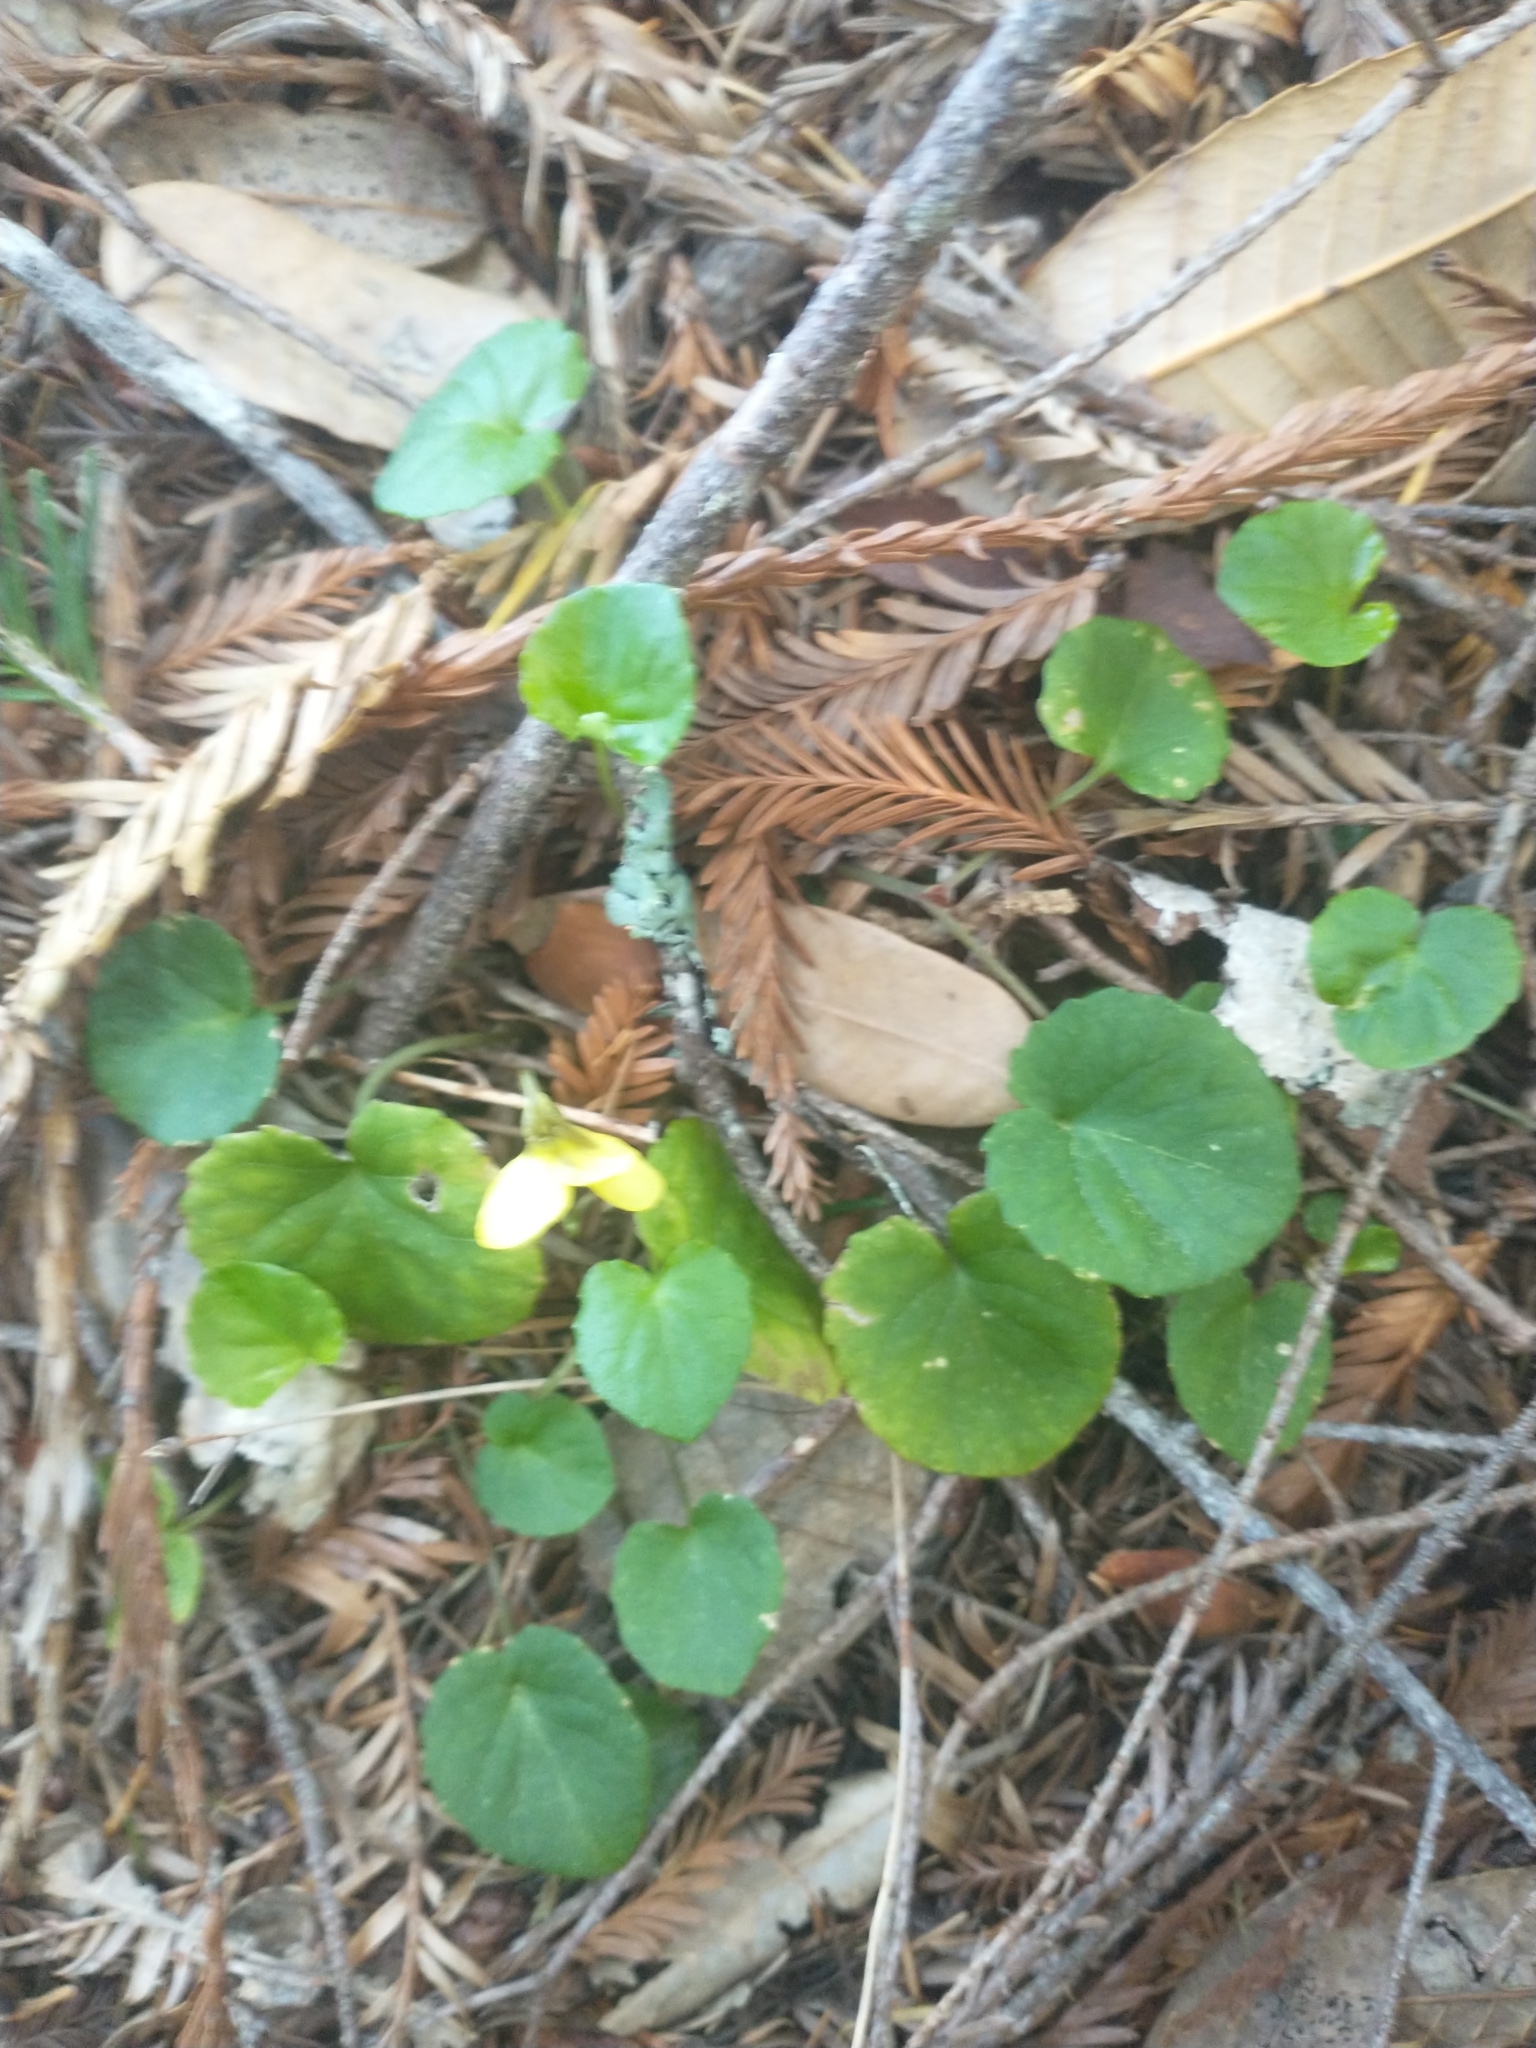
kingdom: Plantae
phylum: Tracheophyta
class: Magnoliopsida
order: Malpighiales
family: Violaceae
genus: Viola
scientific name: Viola sempervirens
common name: Evergreen violet
